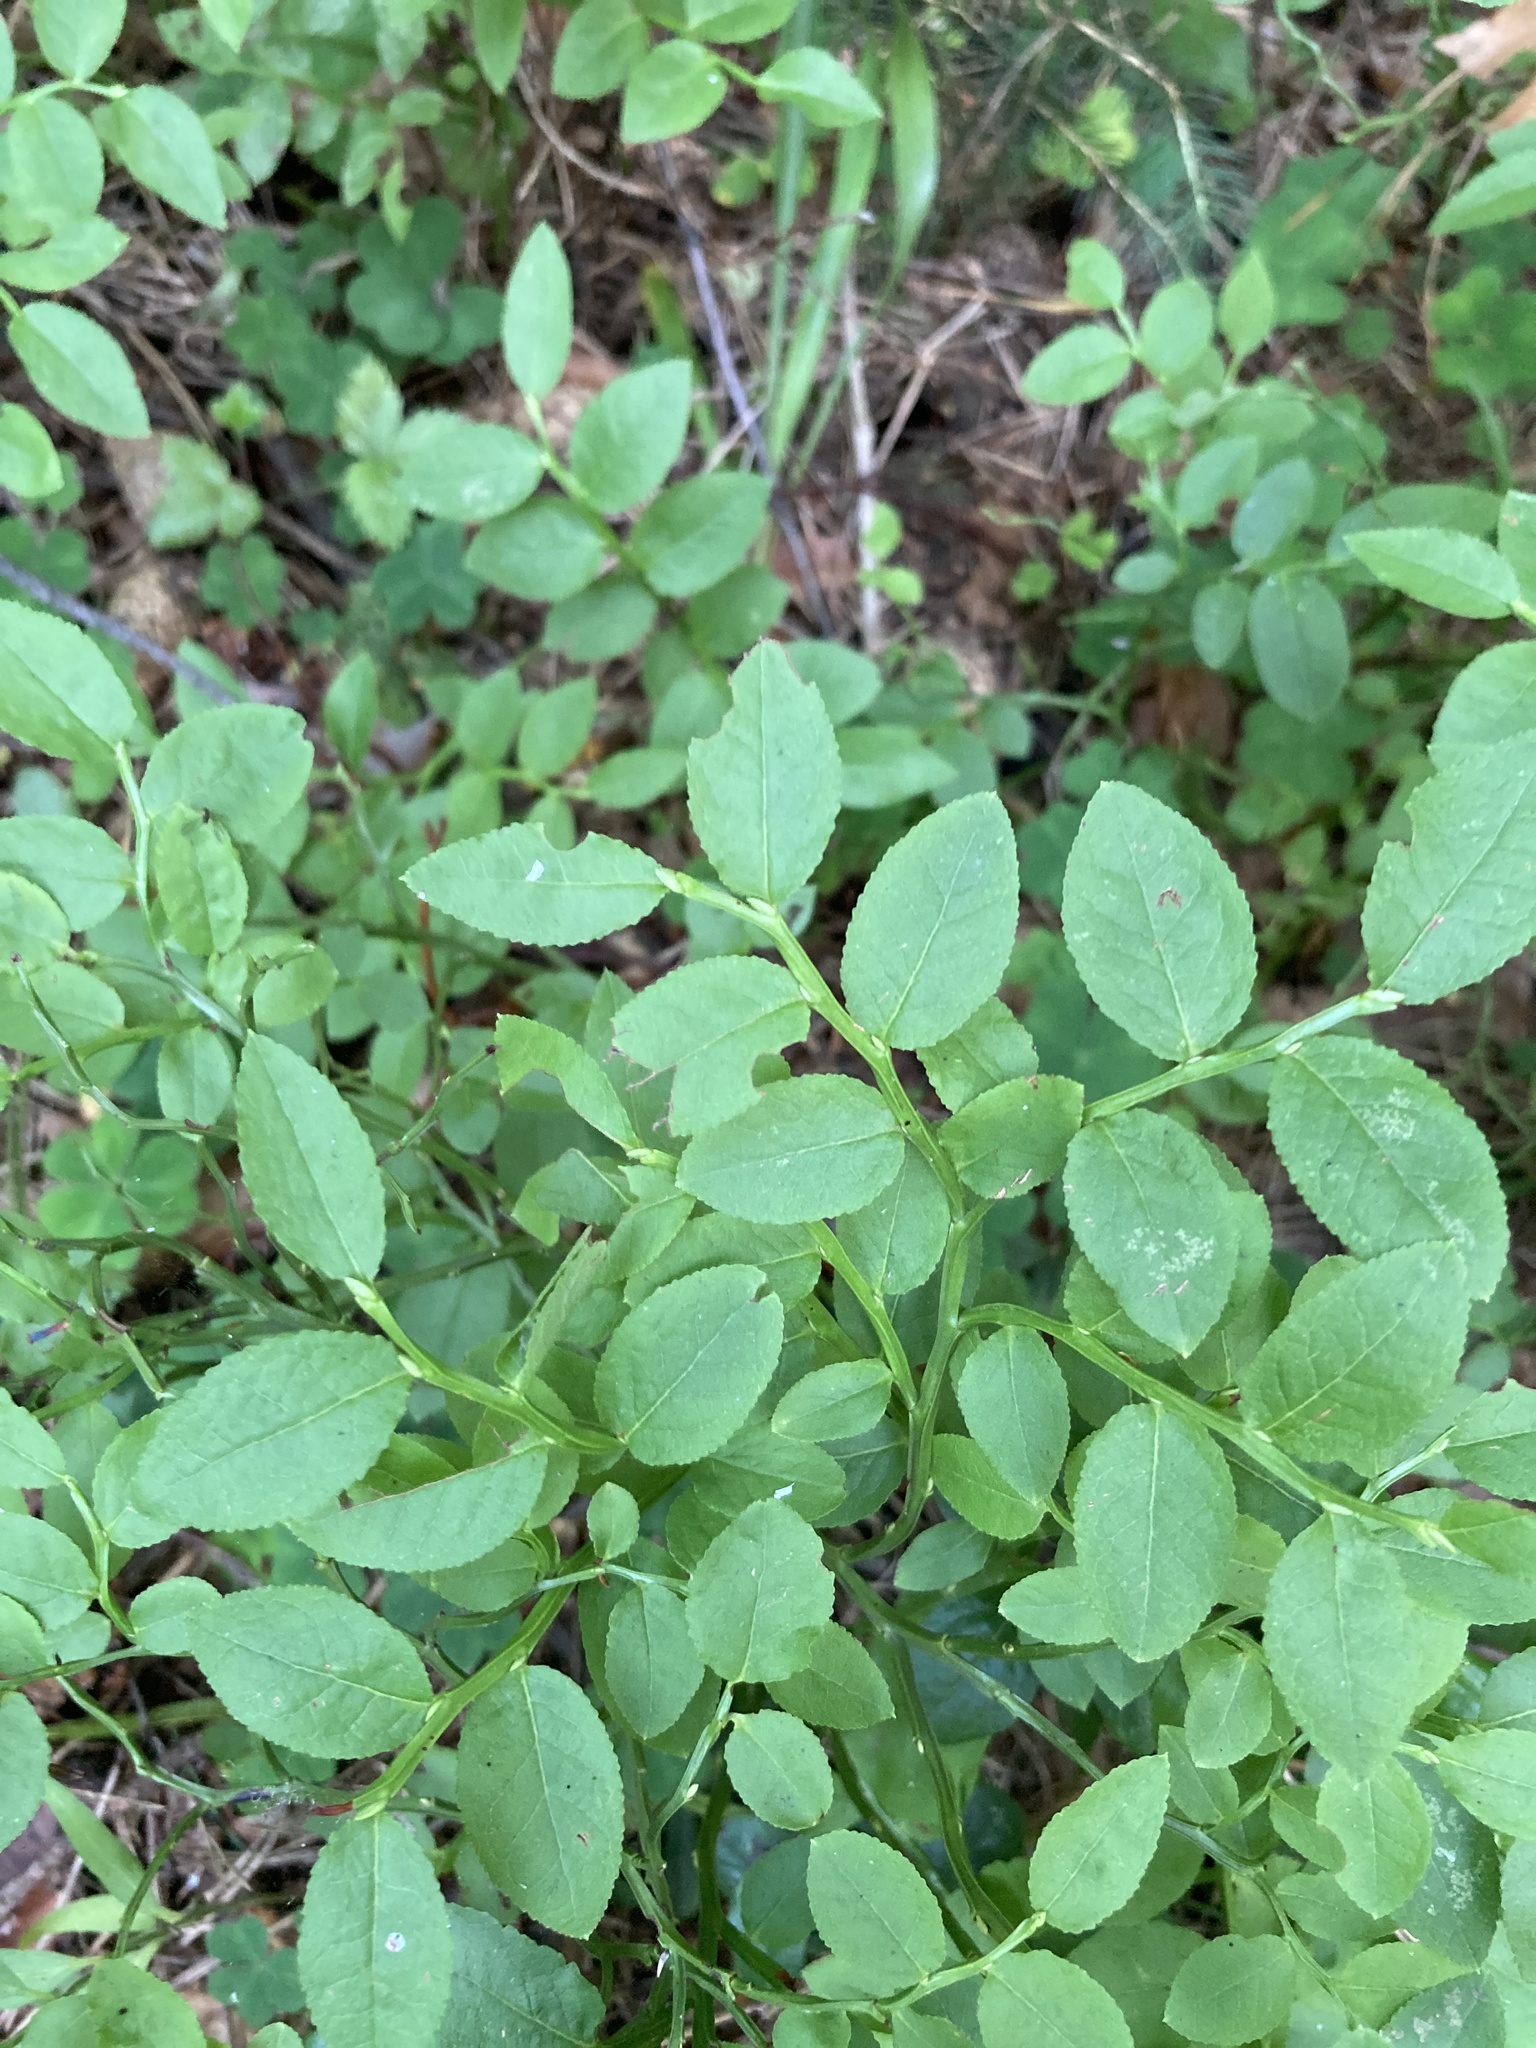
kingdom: Plantae
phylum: Tracheophyta
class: Magnoliopsida
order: Ericales
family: Ericaceae
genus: Vaccinium
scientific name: Vaccinium myrtillus
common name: Bilberry
